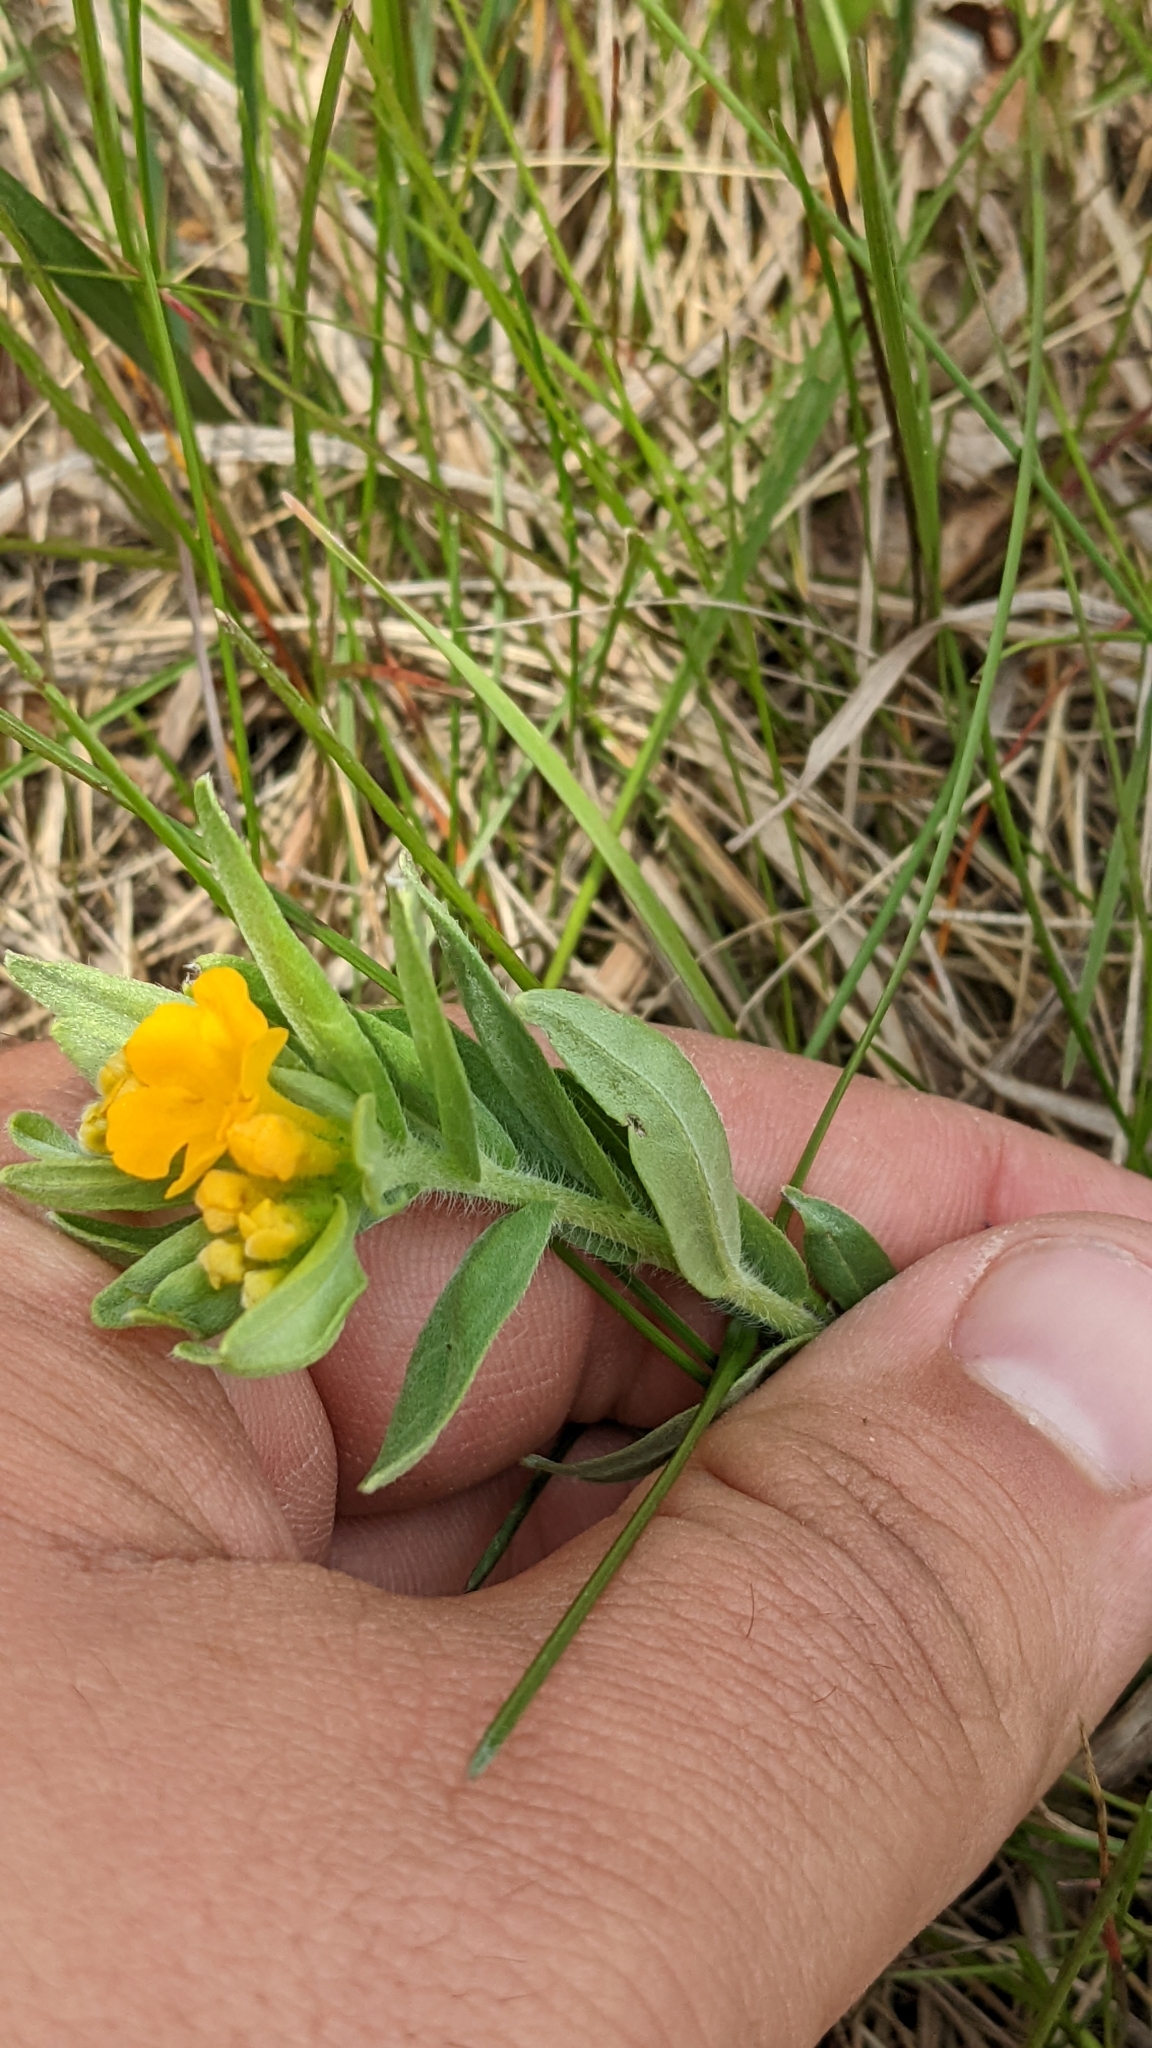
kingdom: Plantae
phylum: Tracheophyta
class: Magnoliopsida
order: Boraginales
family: Boraginaceae
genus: Lithospermum
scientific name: Lithospermum canescens
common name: Hoary puccoon
